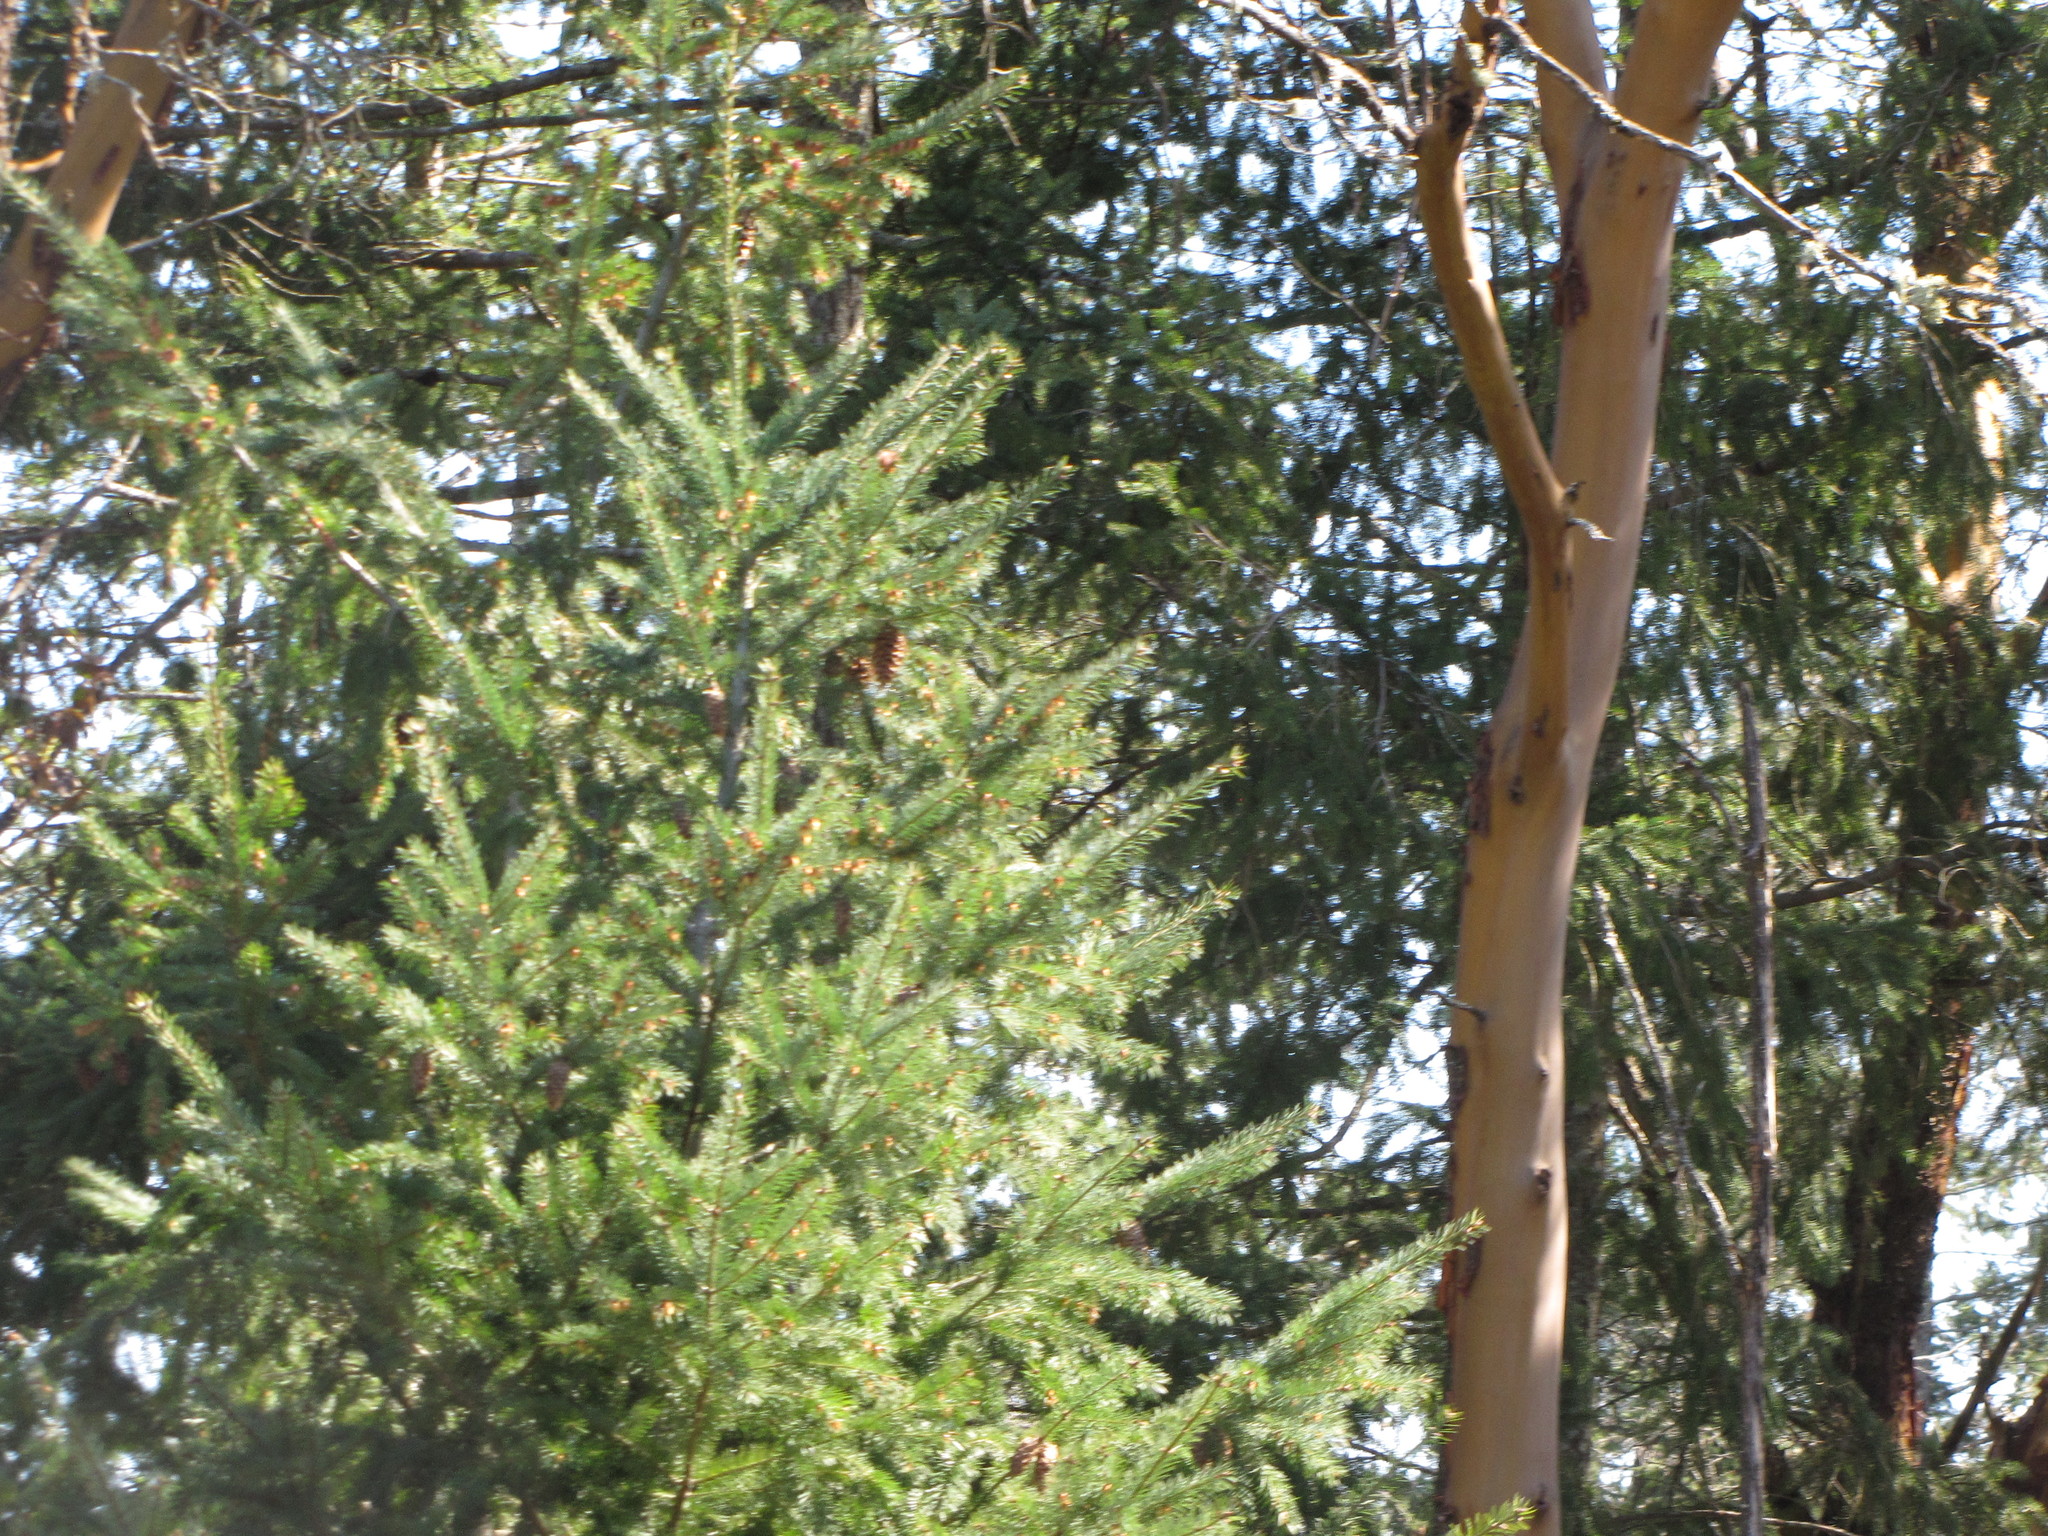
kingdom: Plantae
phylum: Tracheophyta
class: Magnoliopsida
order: Ericales
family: Ericaceae
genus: Arbutus
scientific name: Arbutus menziesii
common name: Pacific madrone
